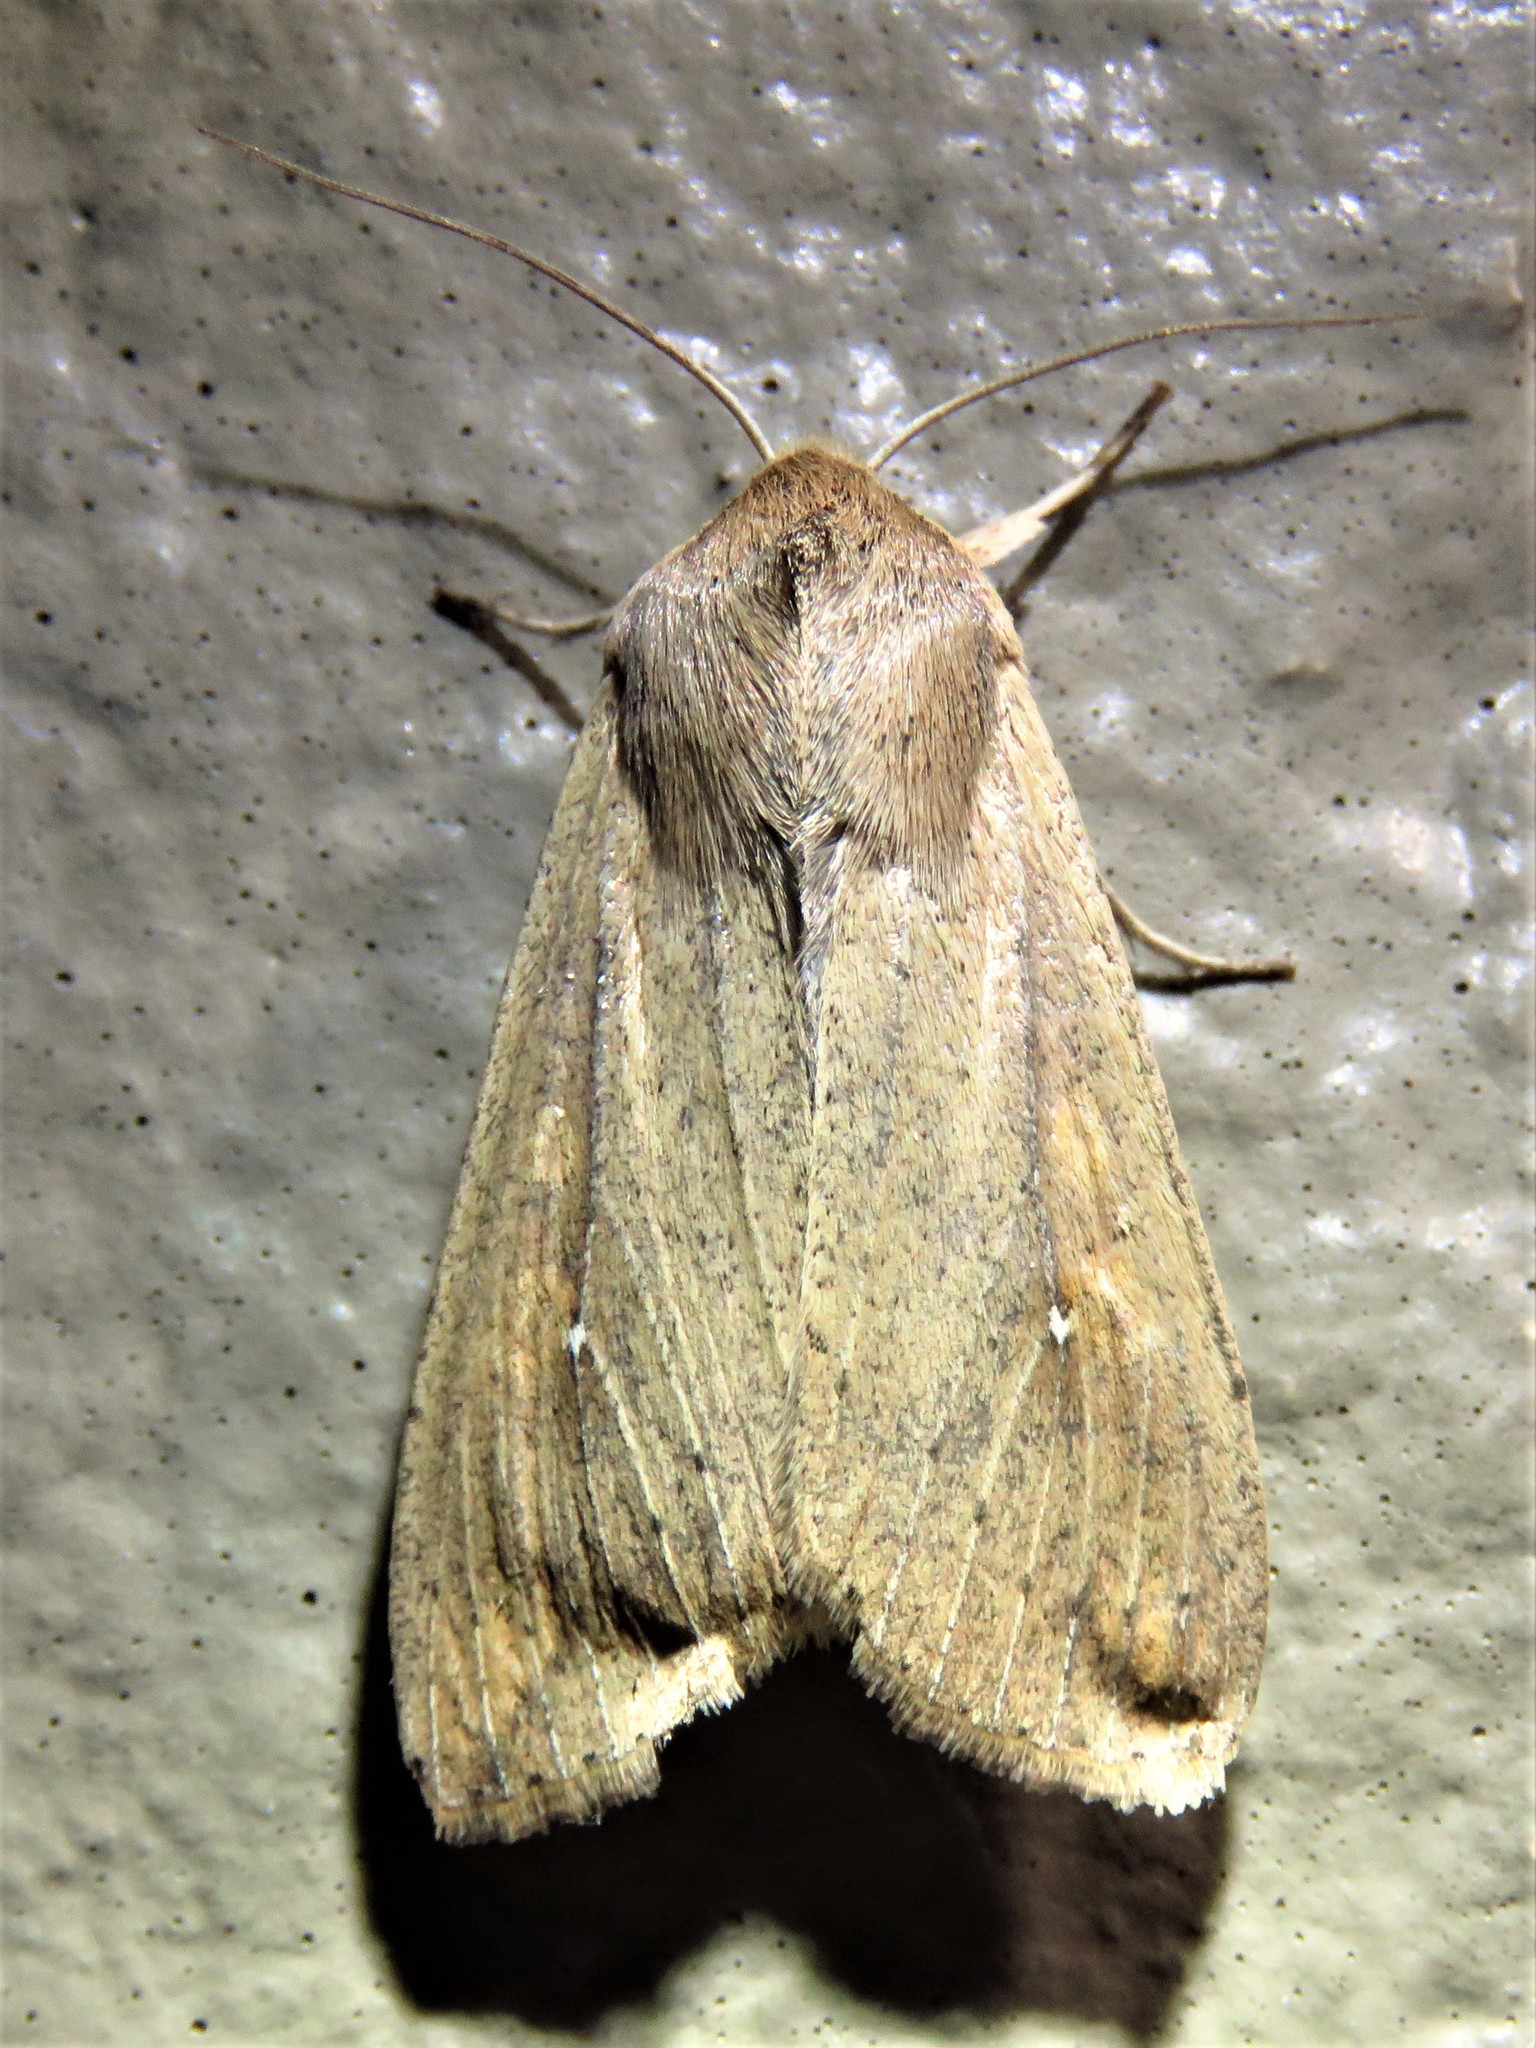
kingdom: Animalia
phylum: Arthropoda
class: Insecta
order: Lepidoptera
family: Noctuidae
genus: Mythimna
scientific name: Mythimna unipuncta
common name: White-speck
